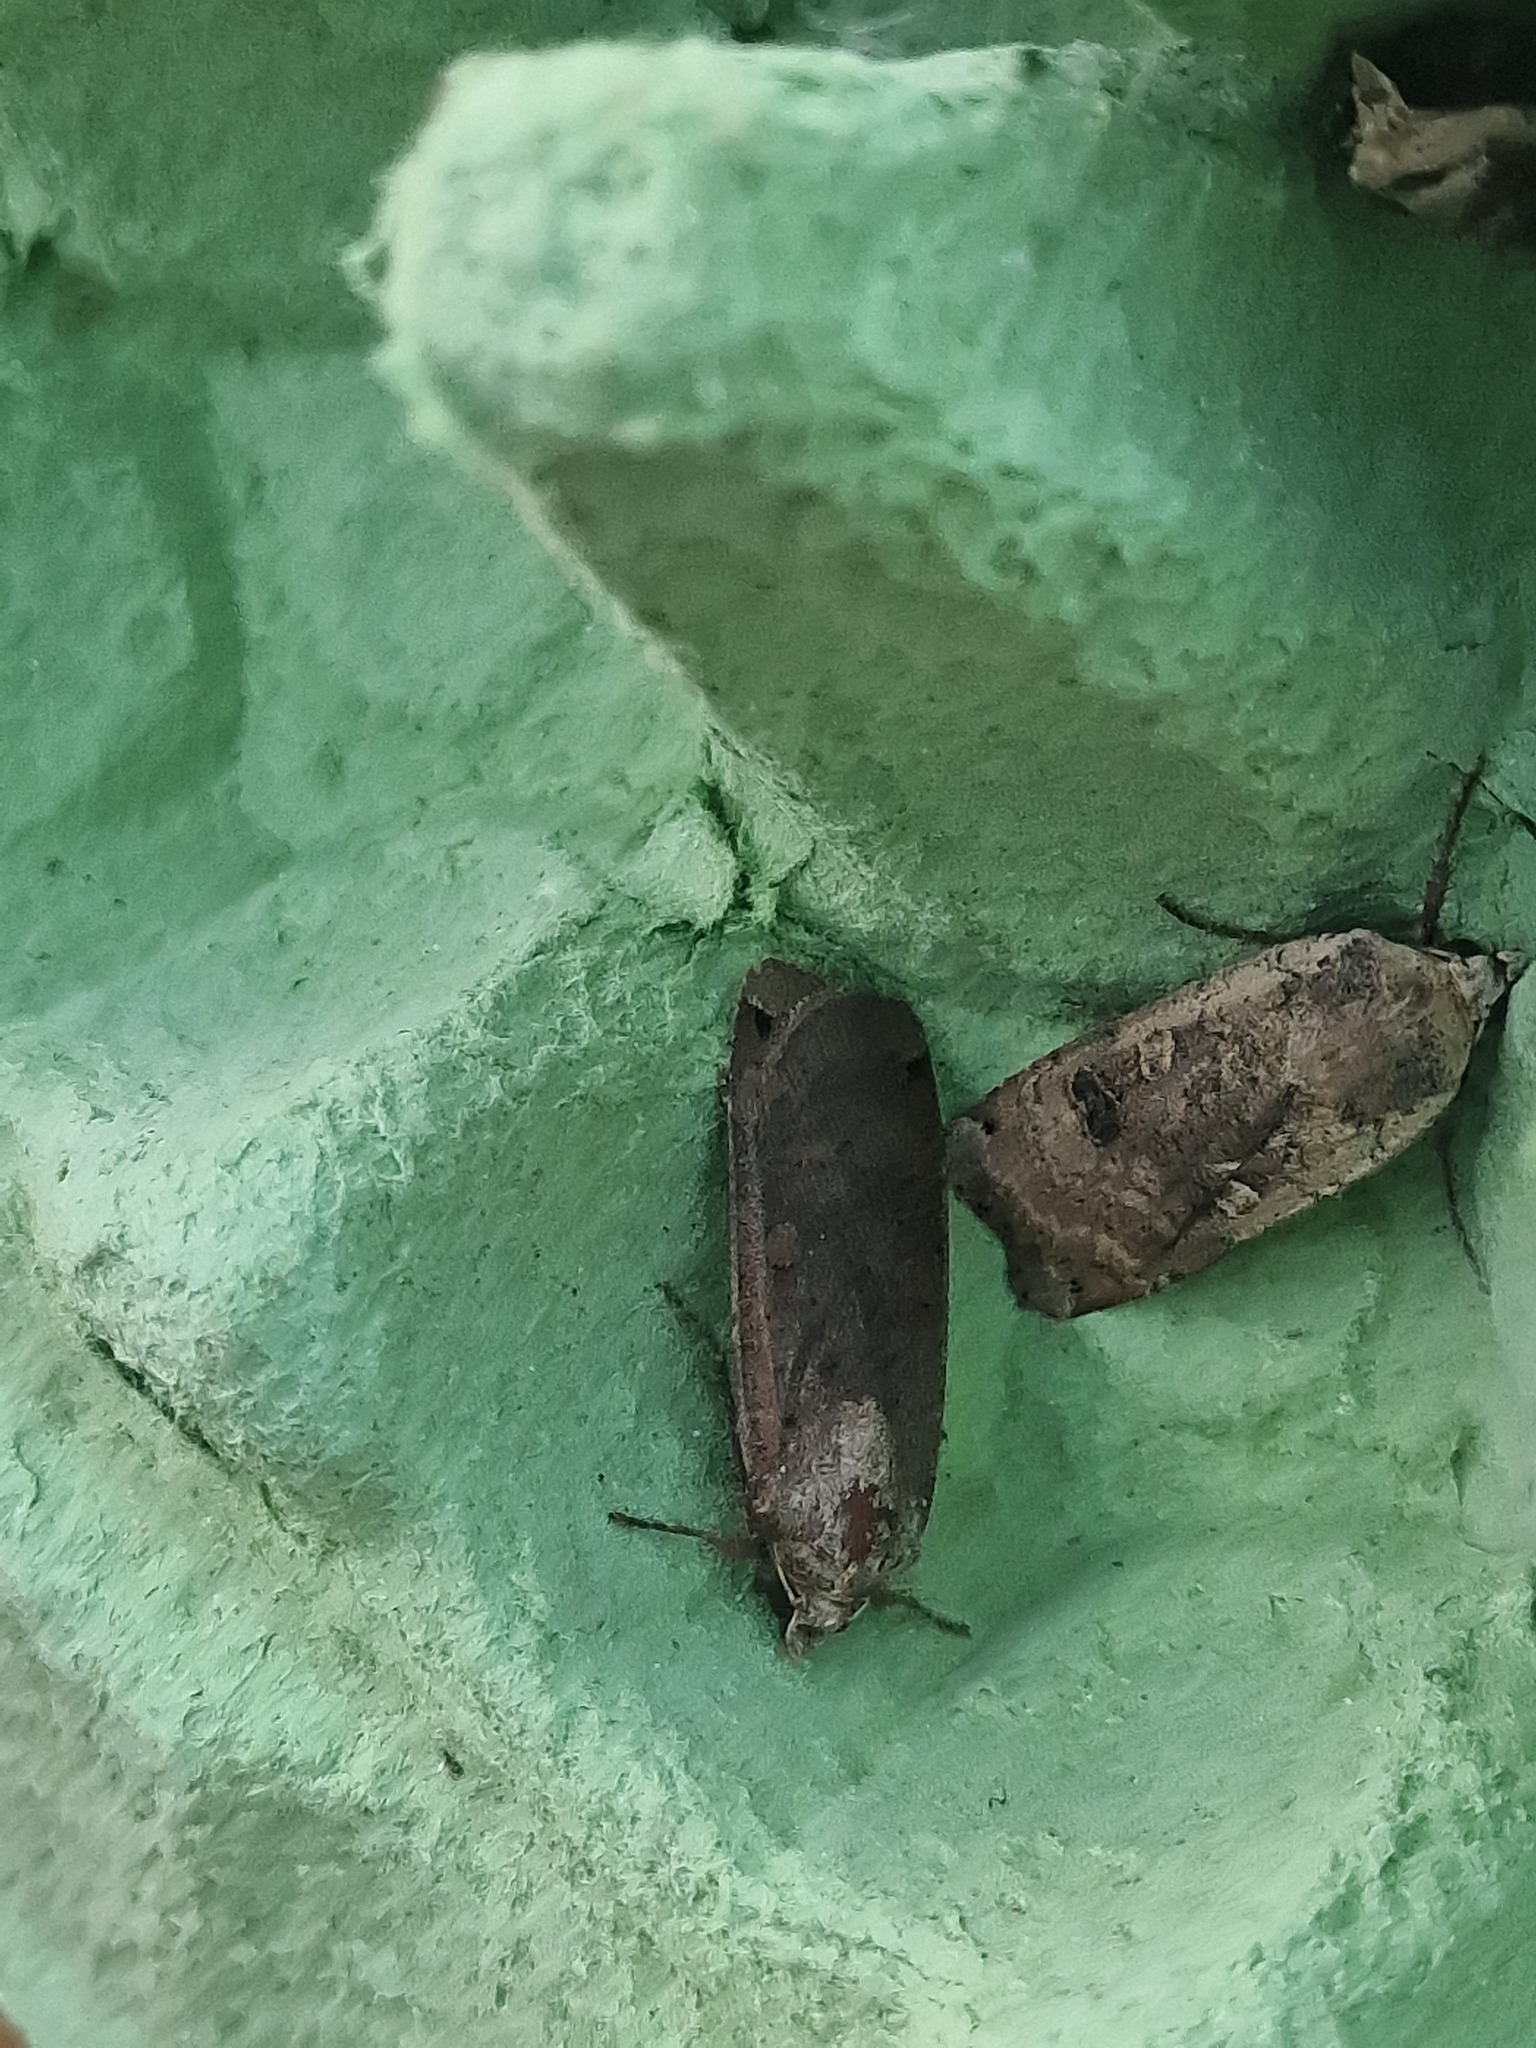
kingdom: Animalia
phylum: Arthropoda
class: Insecta
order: Lepidoptera
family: Noctuidae
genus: Noctua
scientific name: Noctua pronuba
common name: Large yellow underwing
